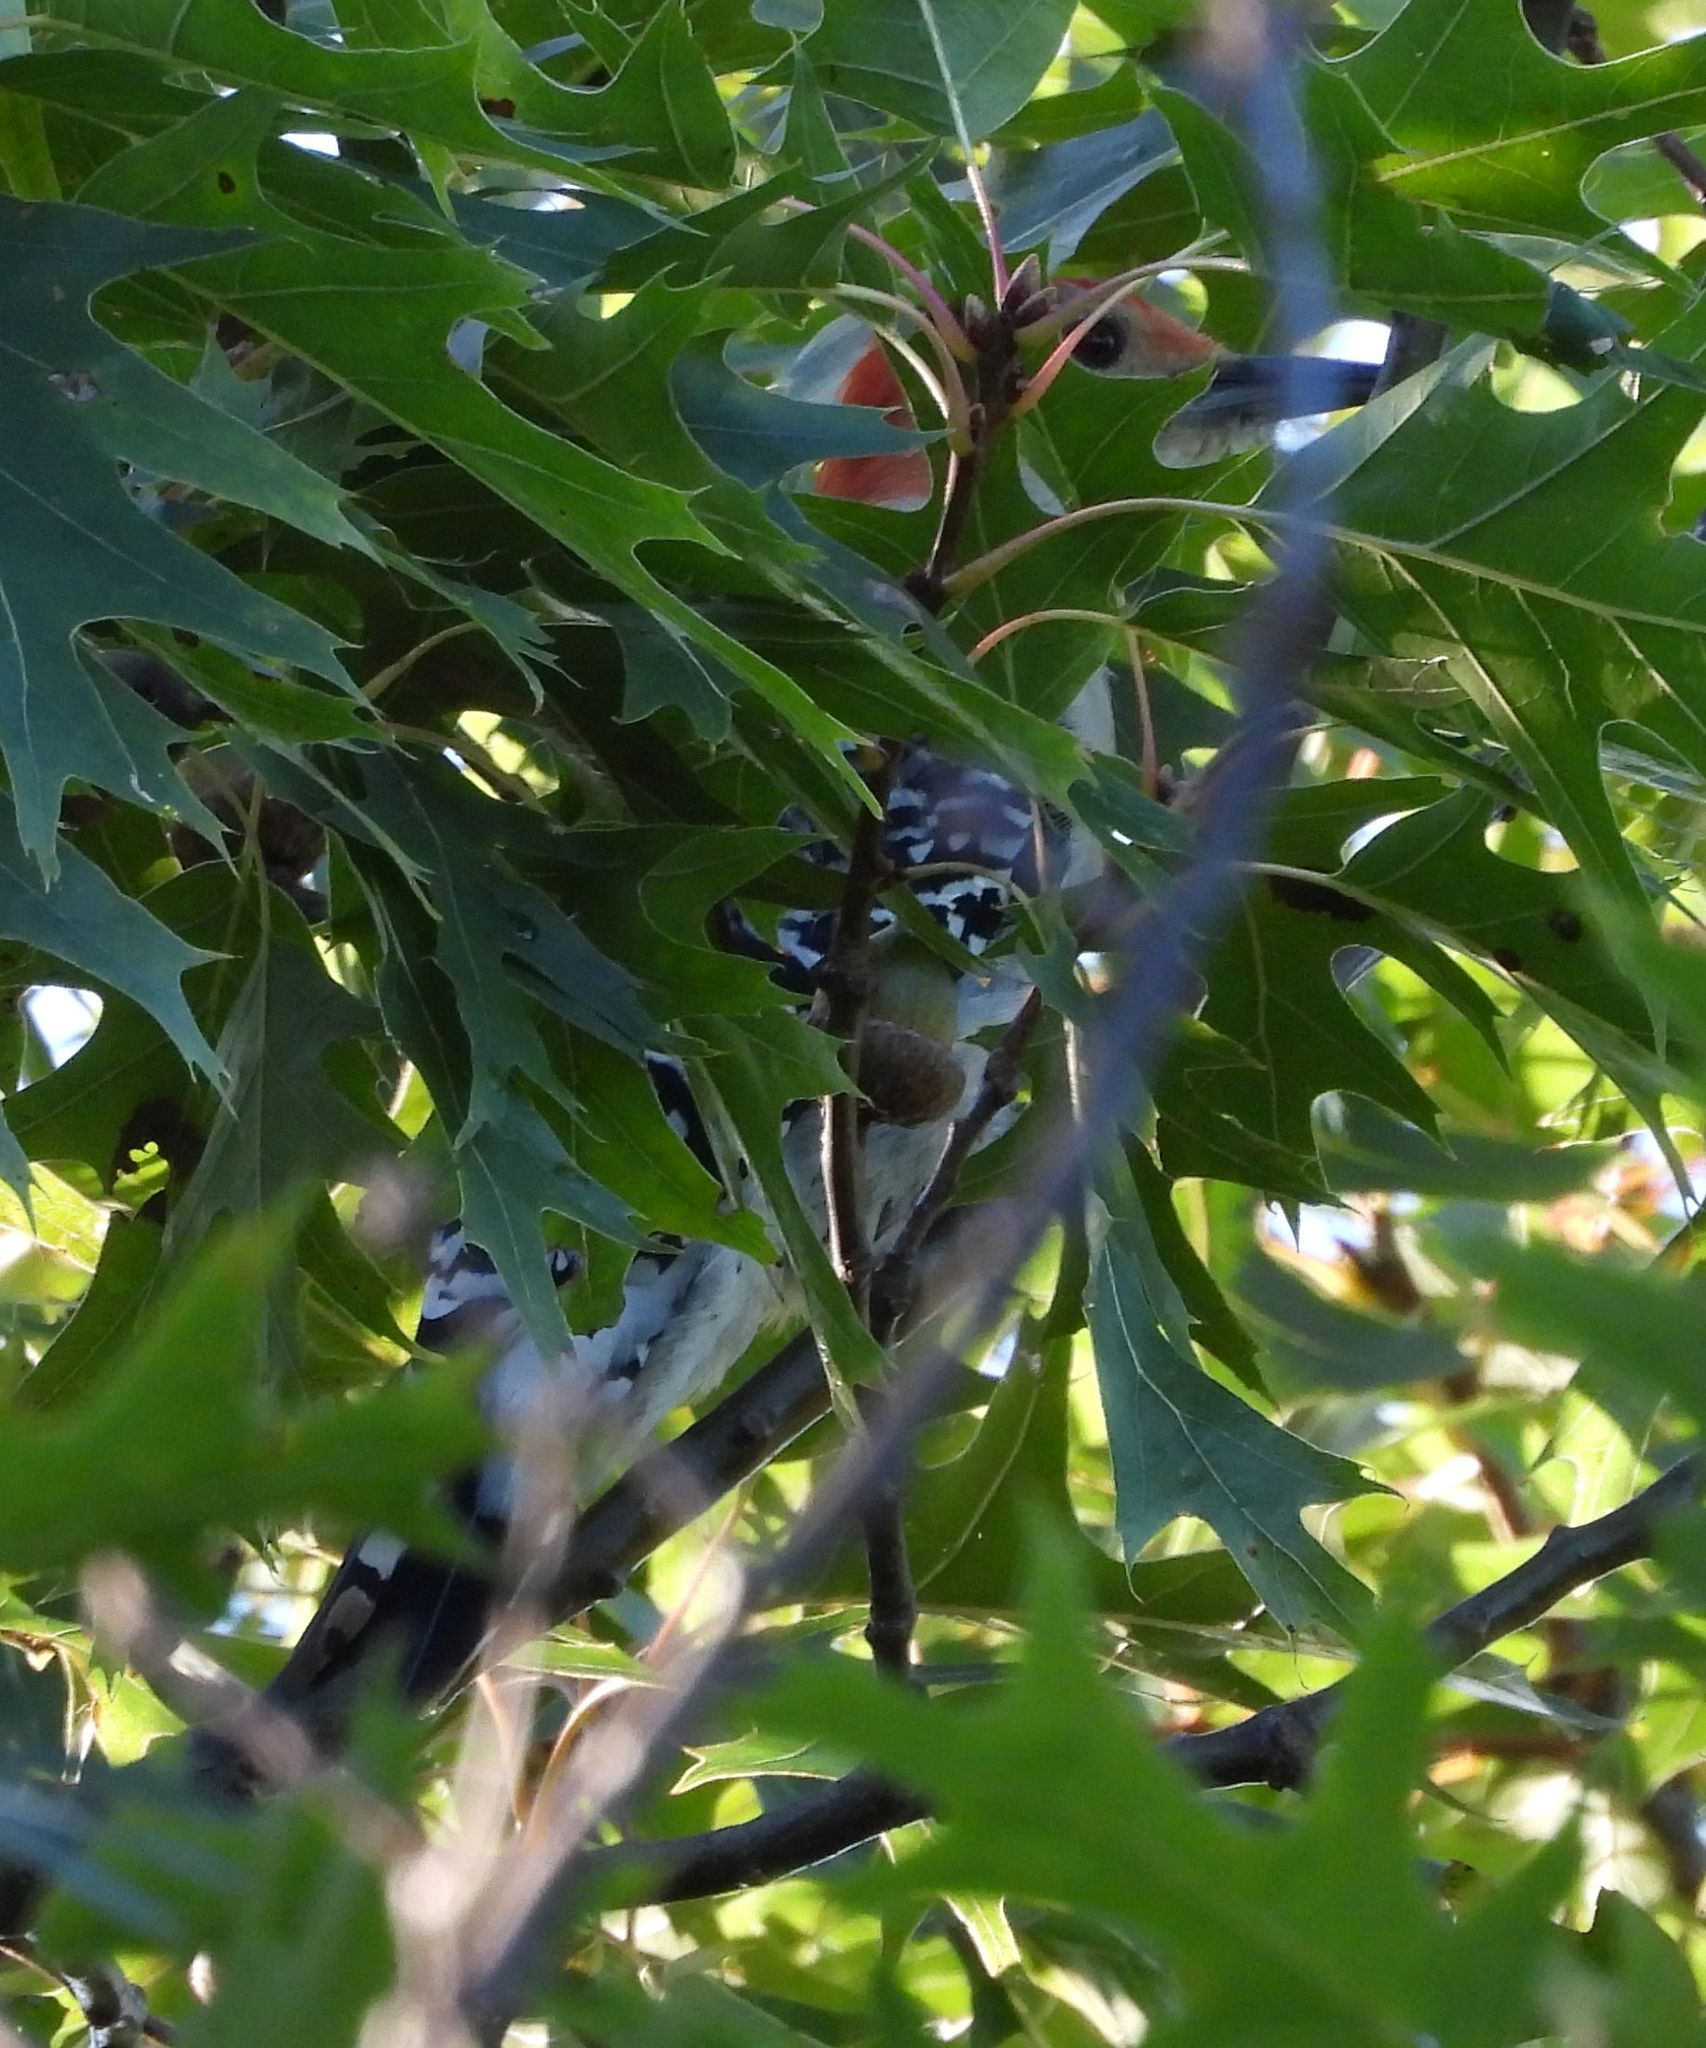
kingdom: Animalia
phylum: Chordata
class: Aves
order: Piciformes
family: Picidae
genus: Melanerpes
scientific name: Melanerpes carolinus
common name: Red-bellied woodpecker
